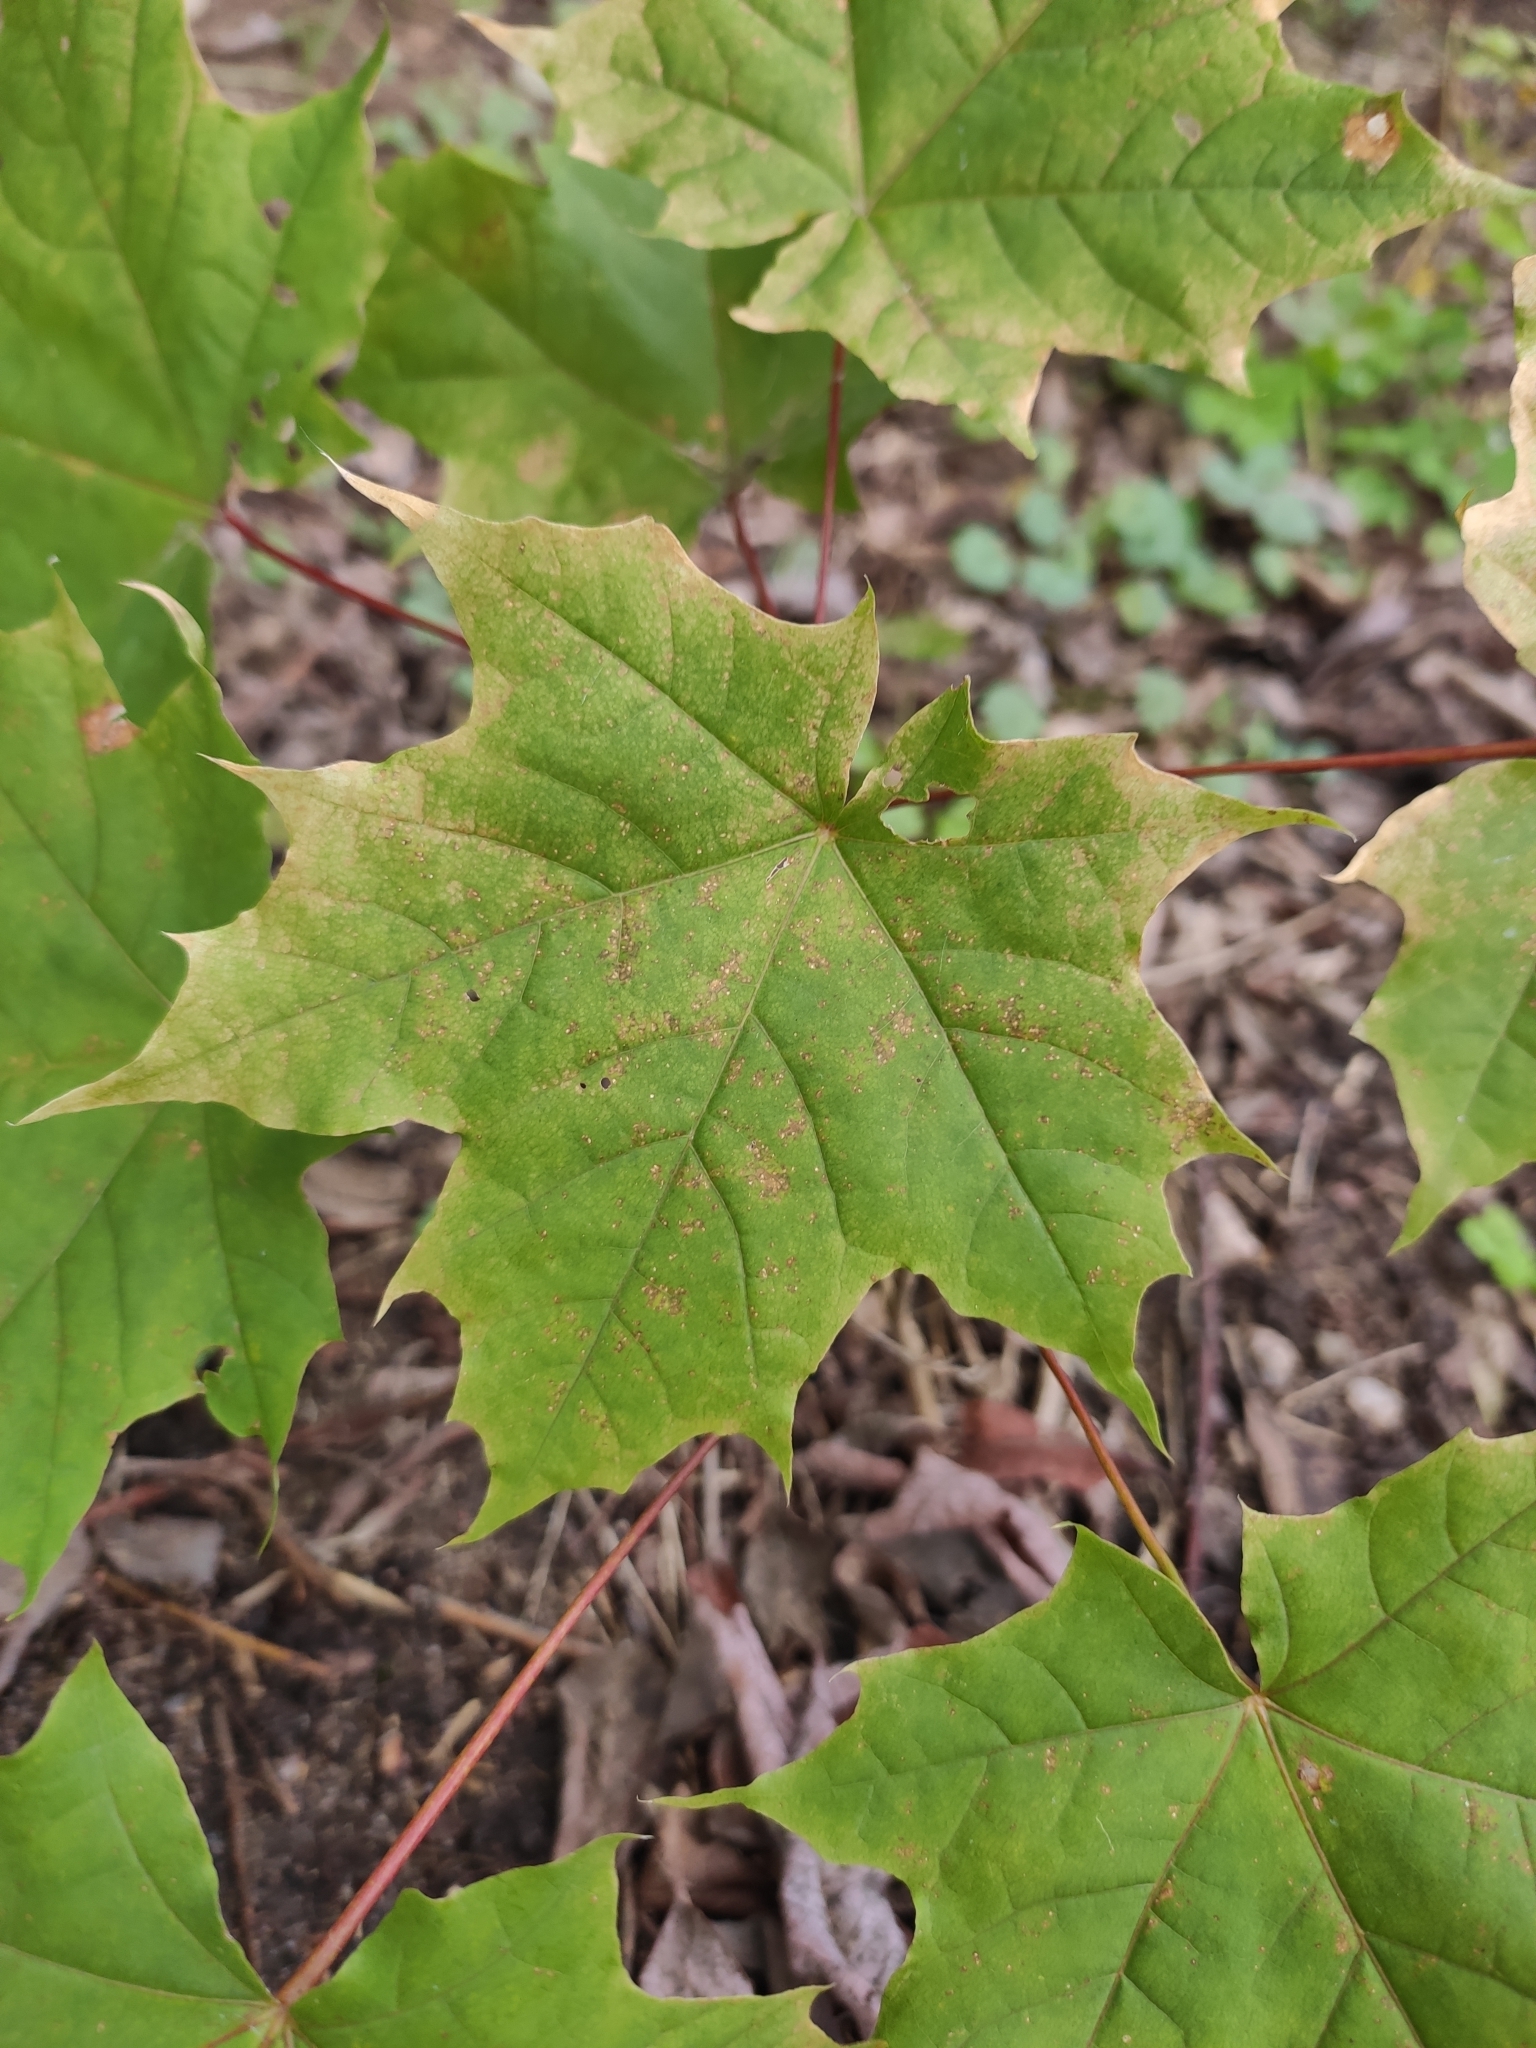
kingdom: Plantae
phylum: Tracheophyta
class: Magnoliopsida
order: Sapindales
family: Sapindaceae
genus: Acer
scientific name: Acer platanoides
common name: Norway maple
